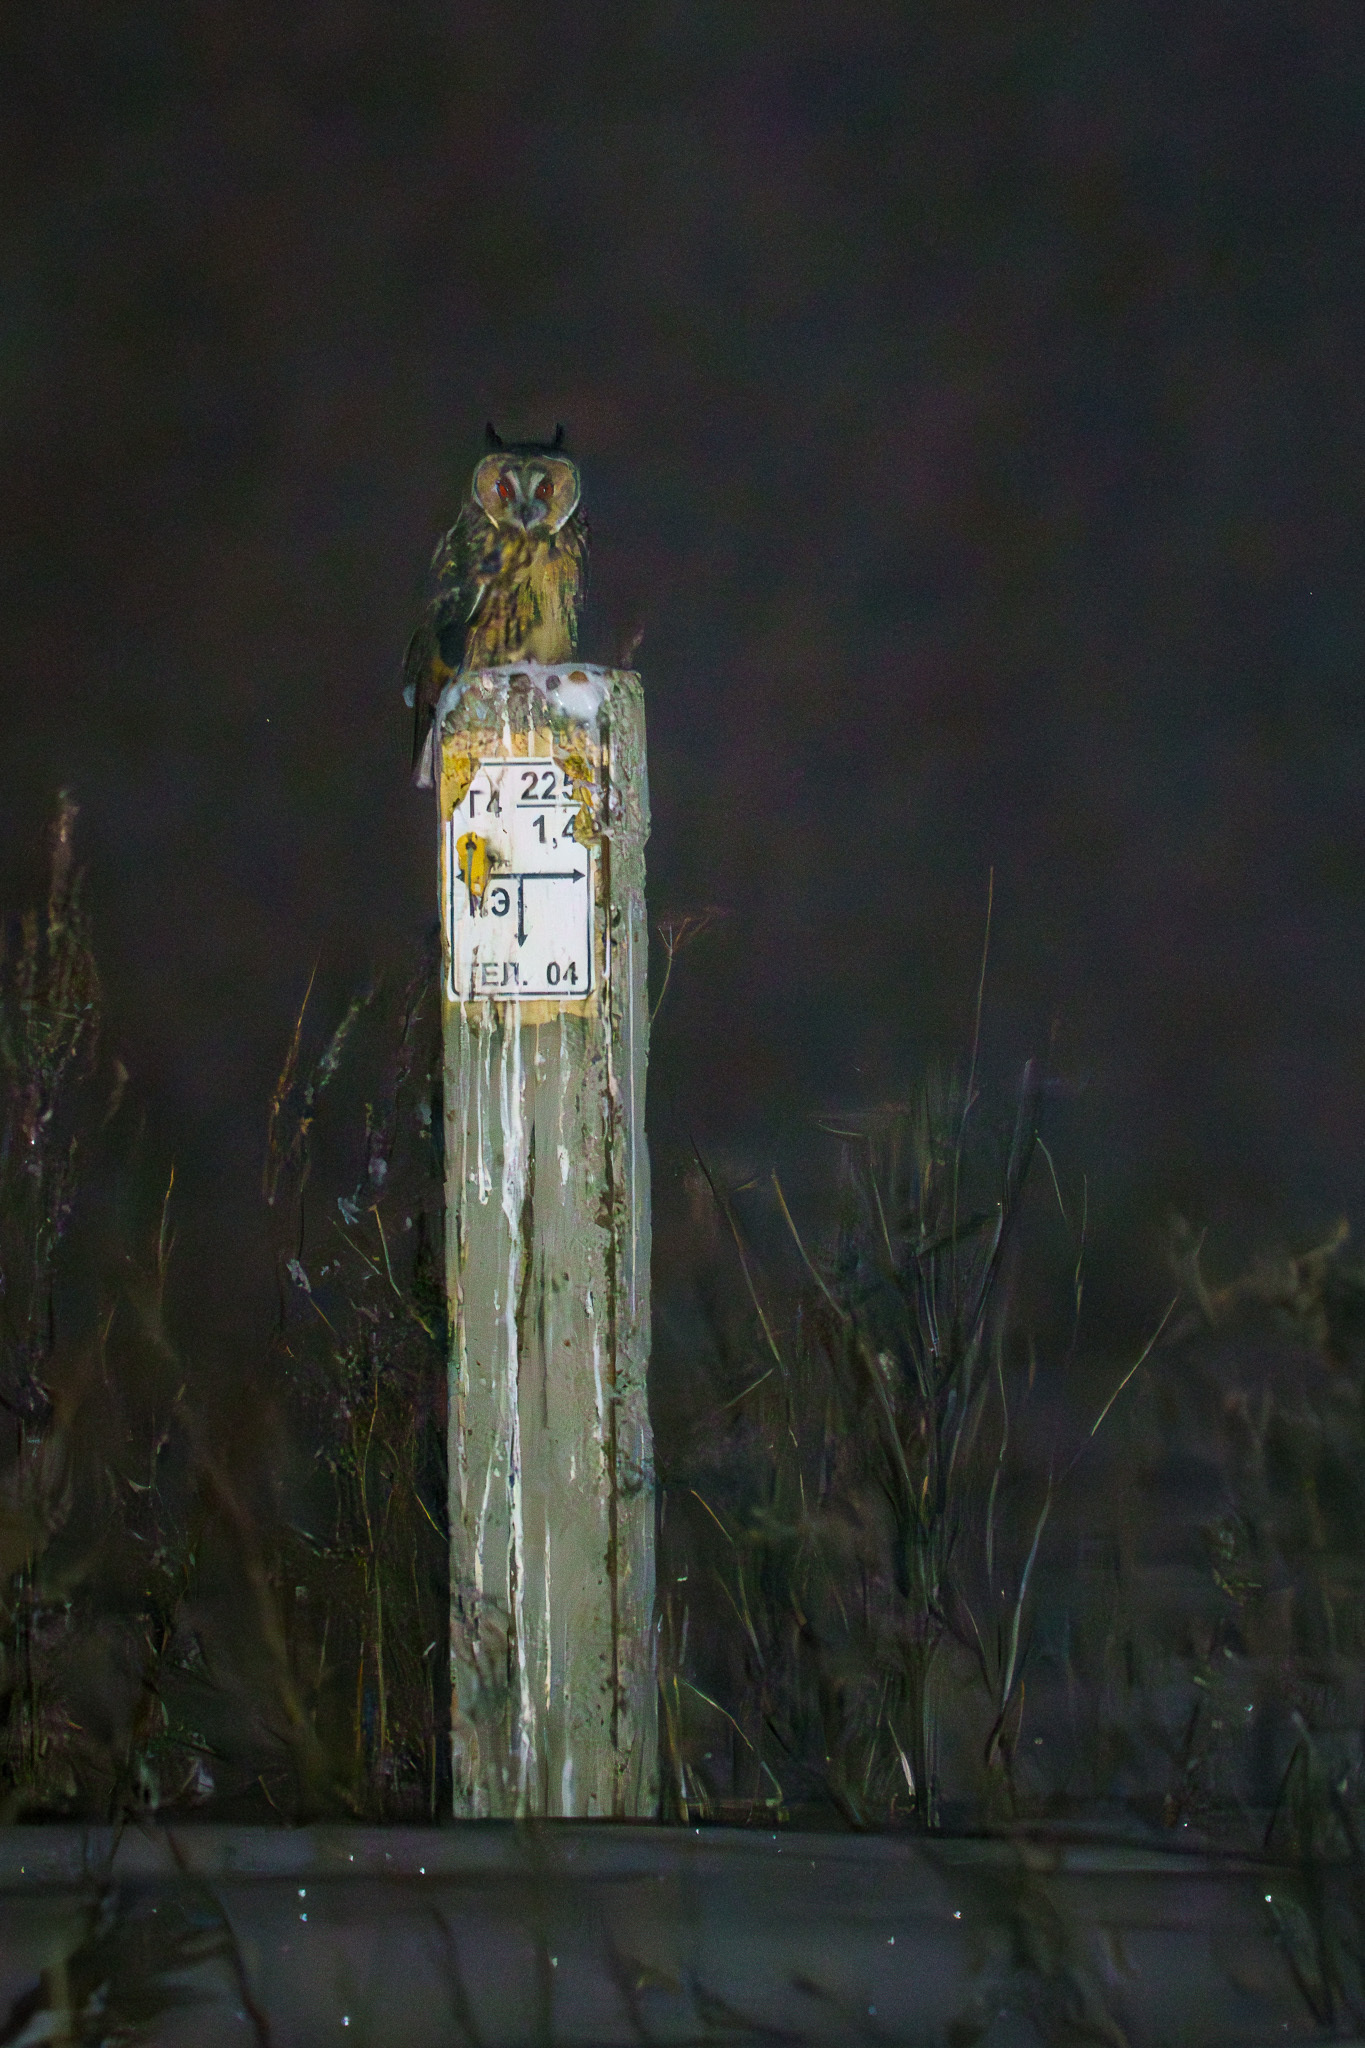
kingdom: Animalia
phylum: Chordata
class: Aves
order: Strigiformes
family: Strigidae
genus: Asio
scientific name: Asio otus
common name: Long-eared owl
